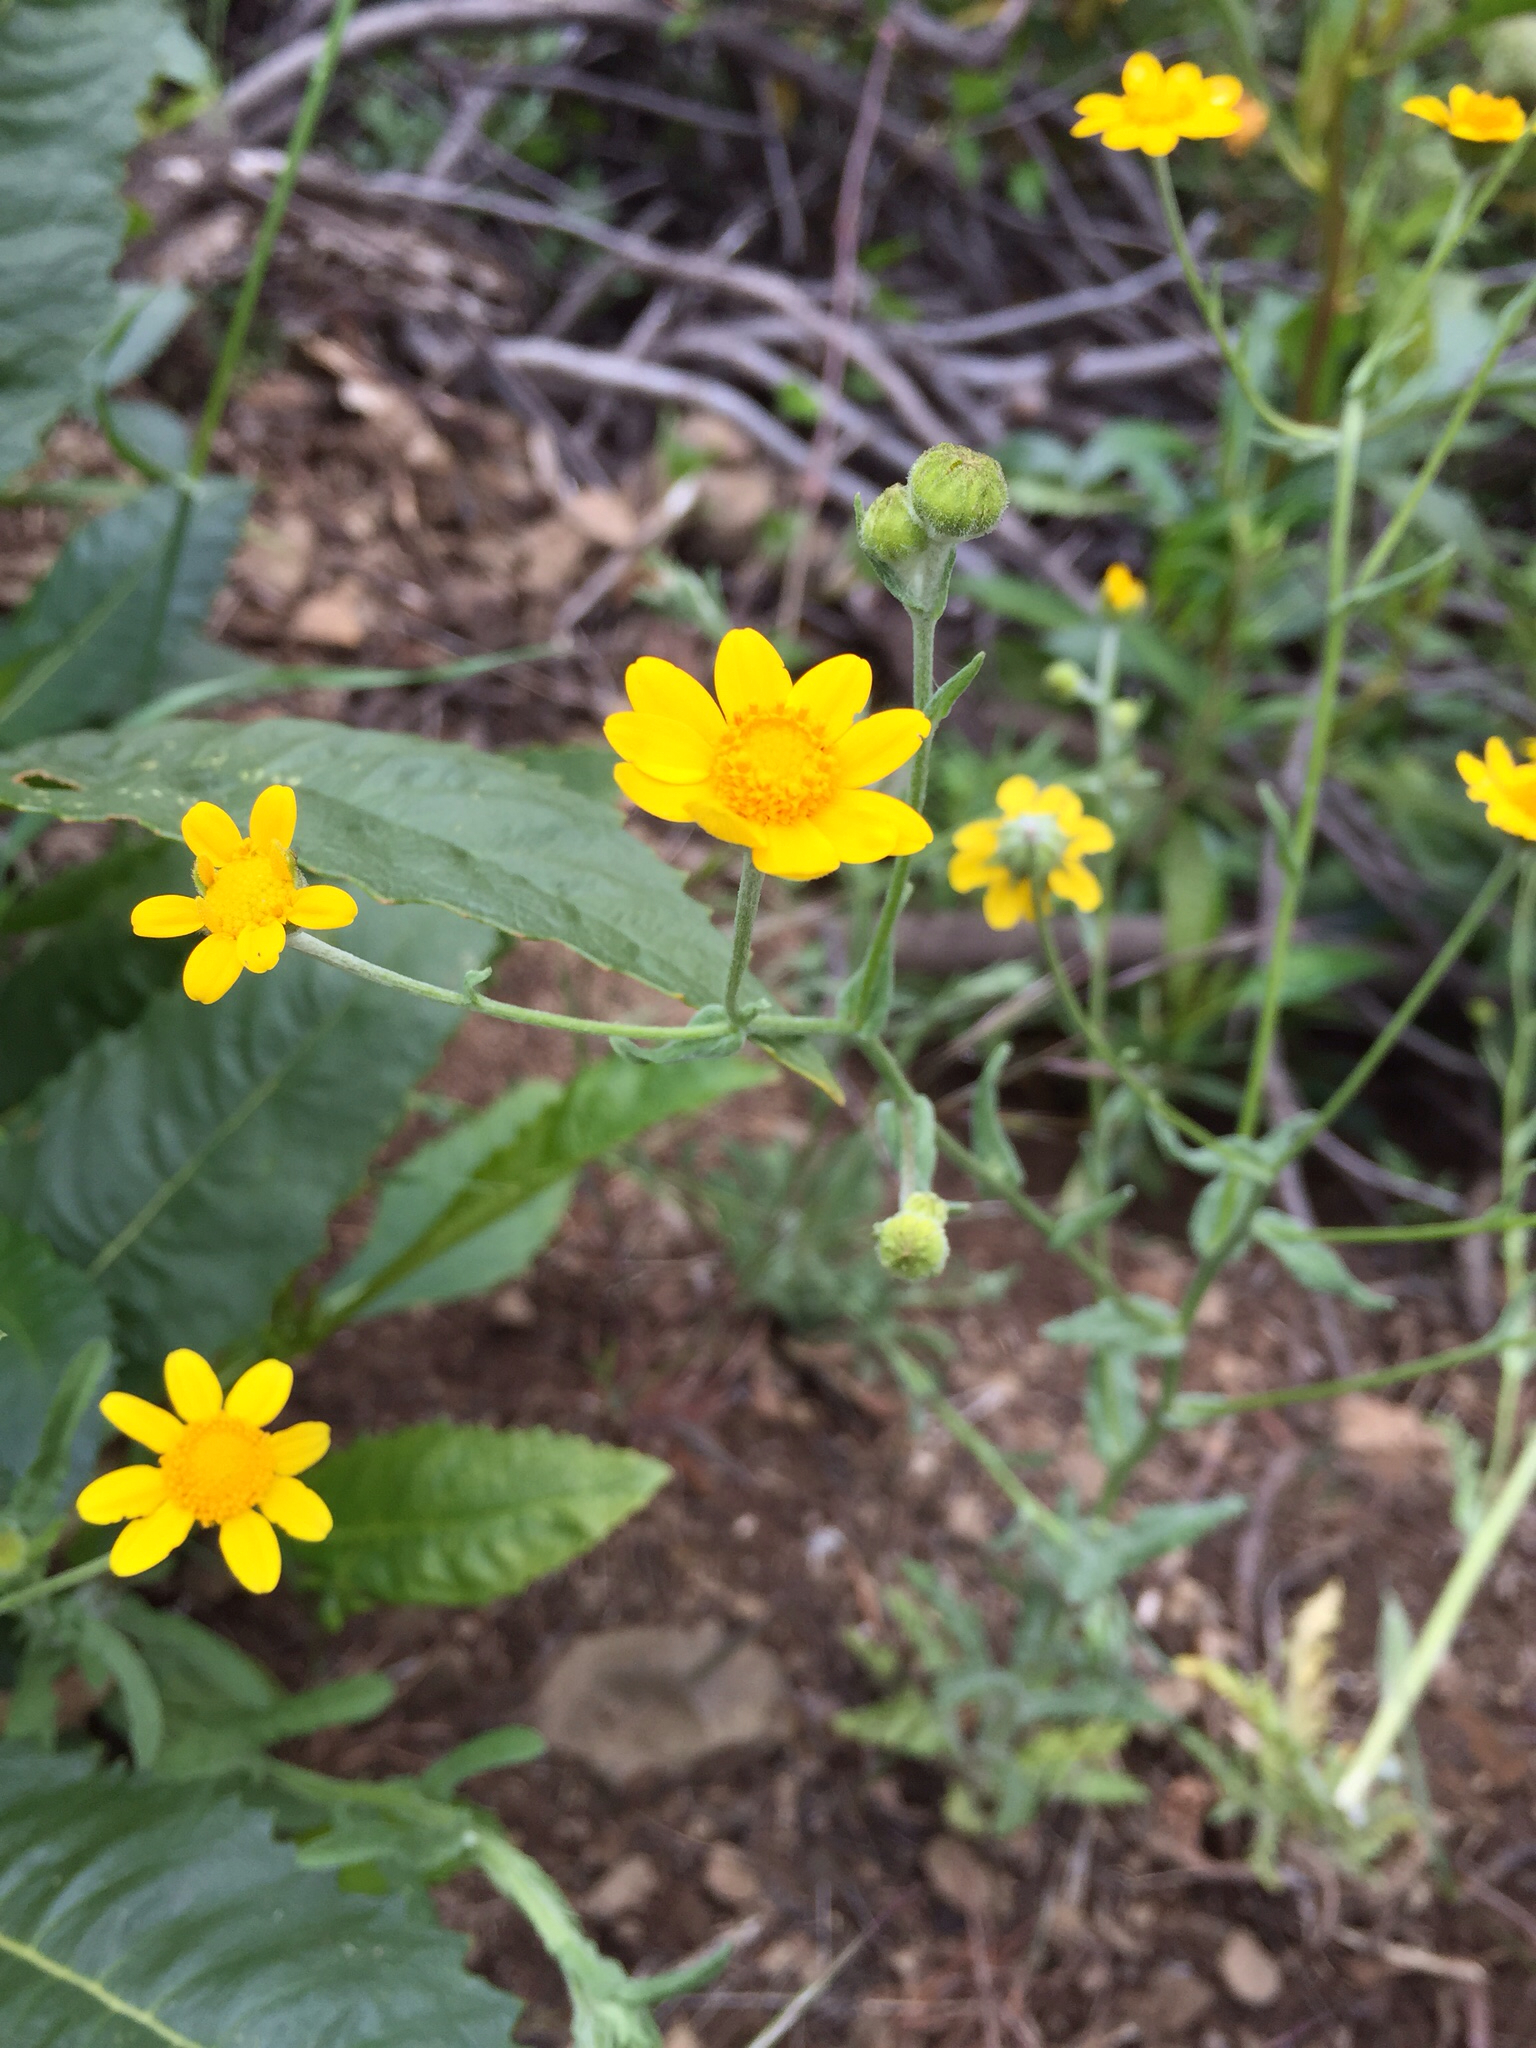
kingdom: Plantae
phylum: Tracheophyta
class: Magnoliopsida
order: Asterales
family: Asteraceae
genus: Monolopia
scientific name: Monolopia gracilens
